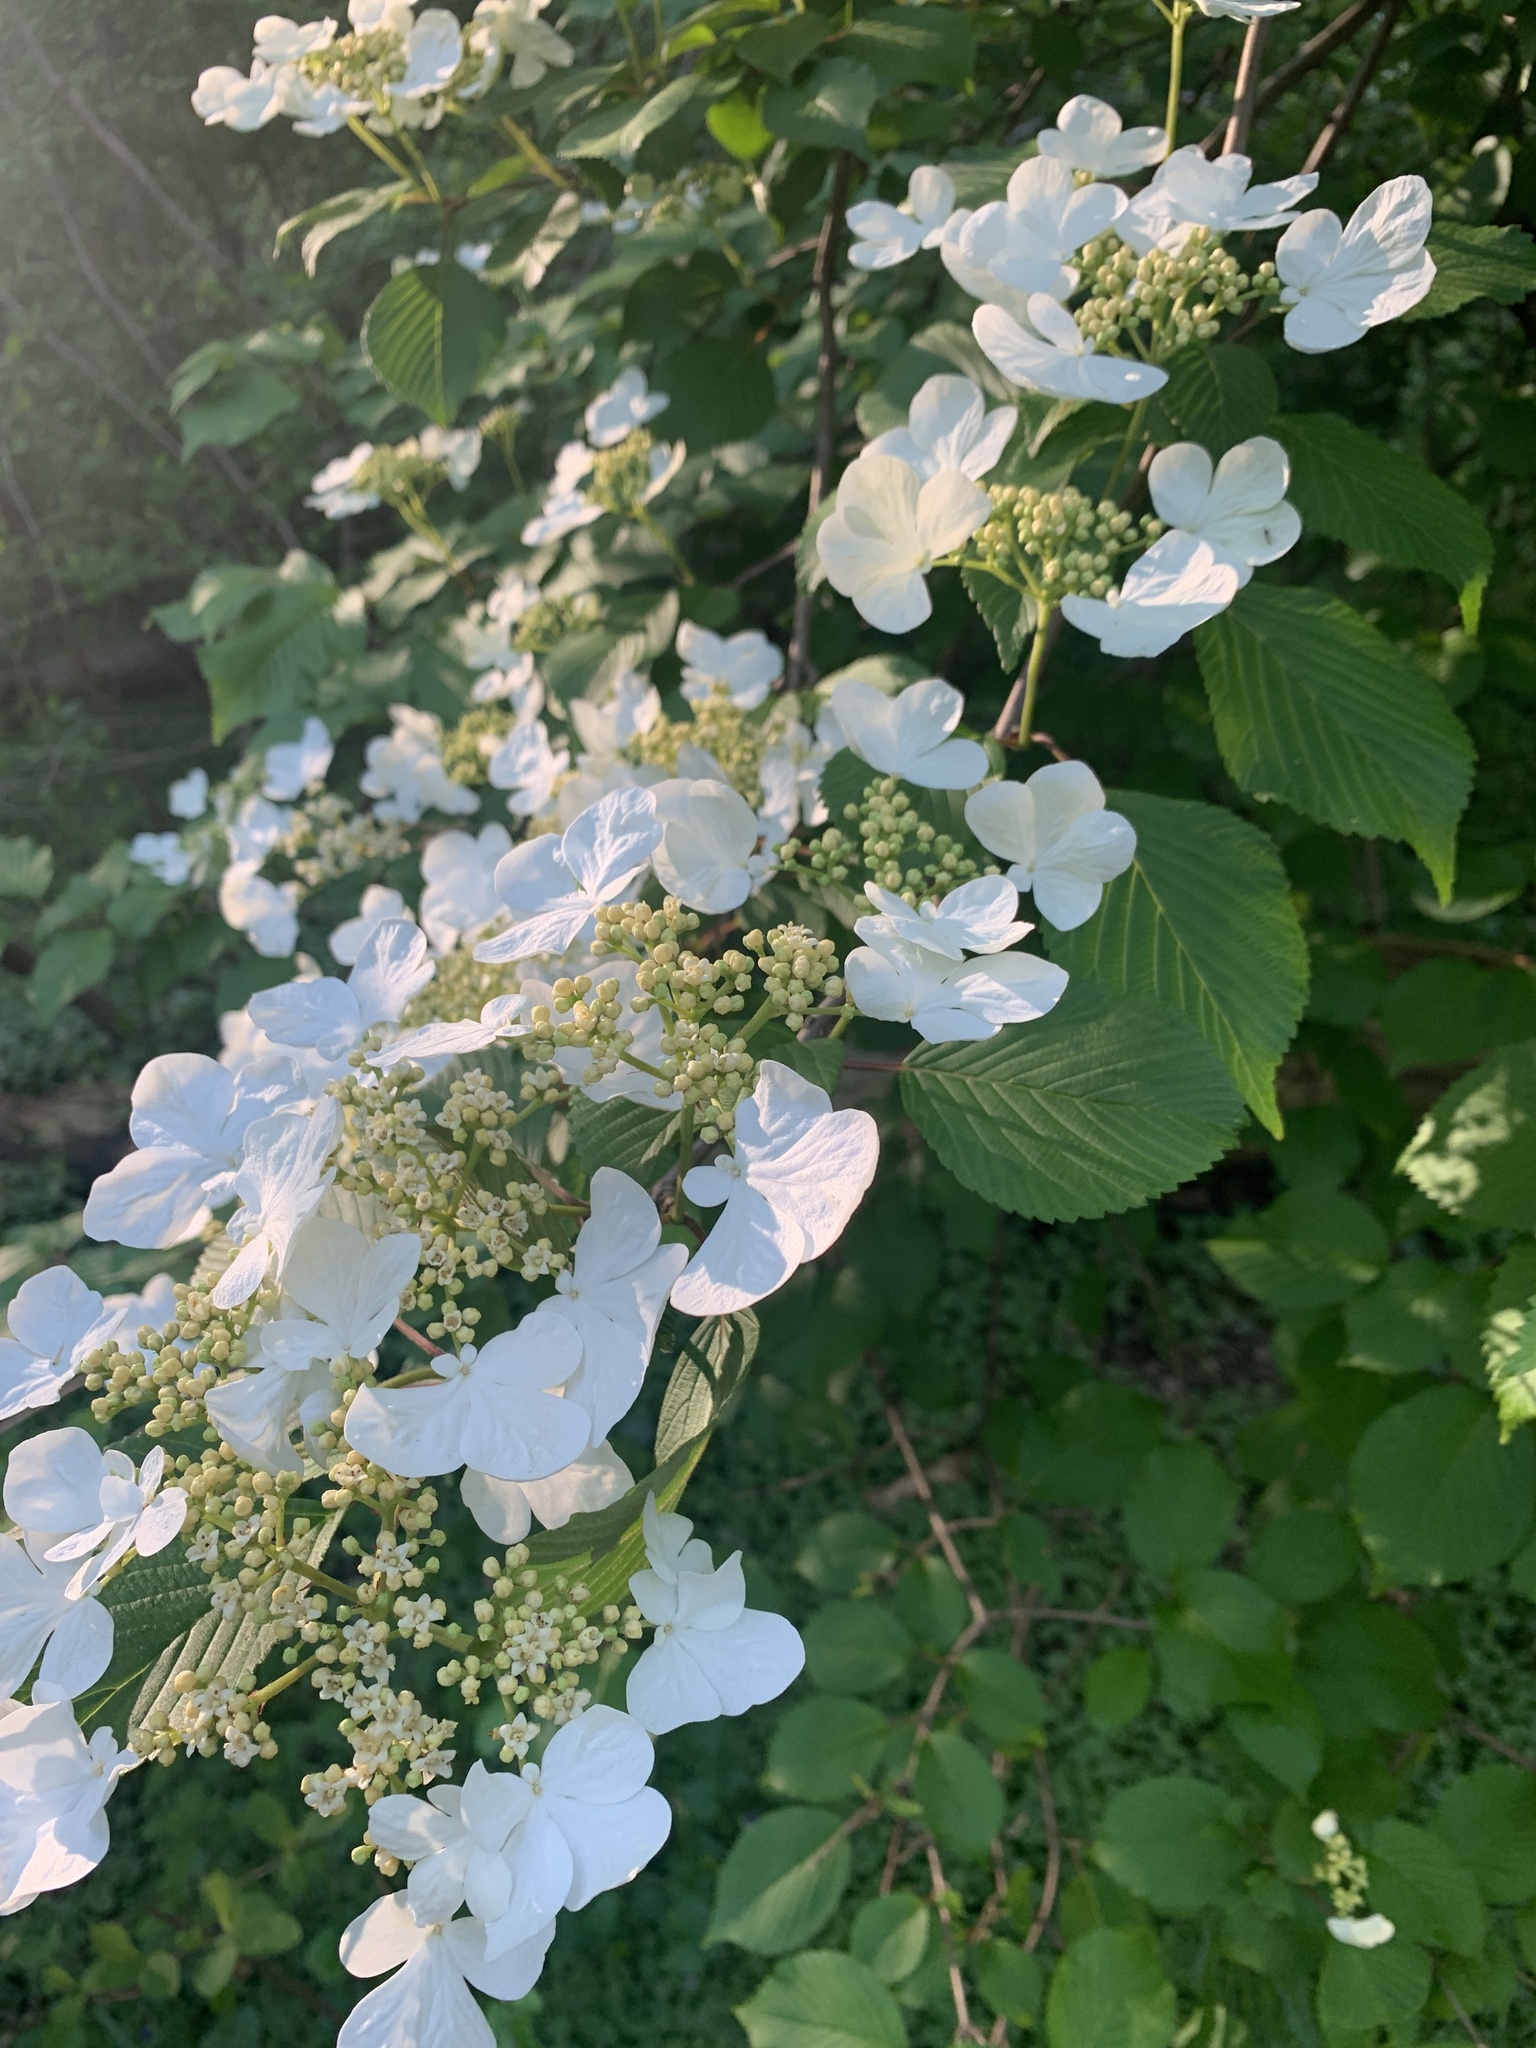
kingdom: Plantae
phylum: Tracheophyta
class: Magnoliopsida
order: Dipsacales
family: Viburnaceae
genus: Viburnum
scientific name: Viburnum plicatum
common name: Japanese snowball
